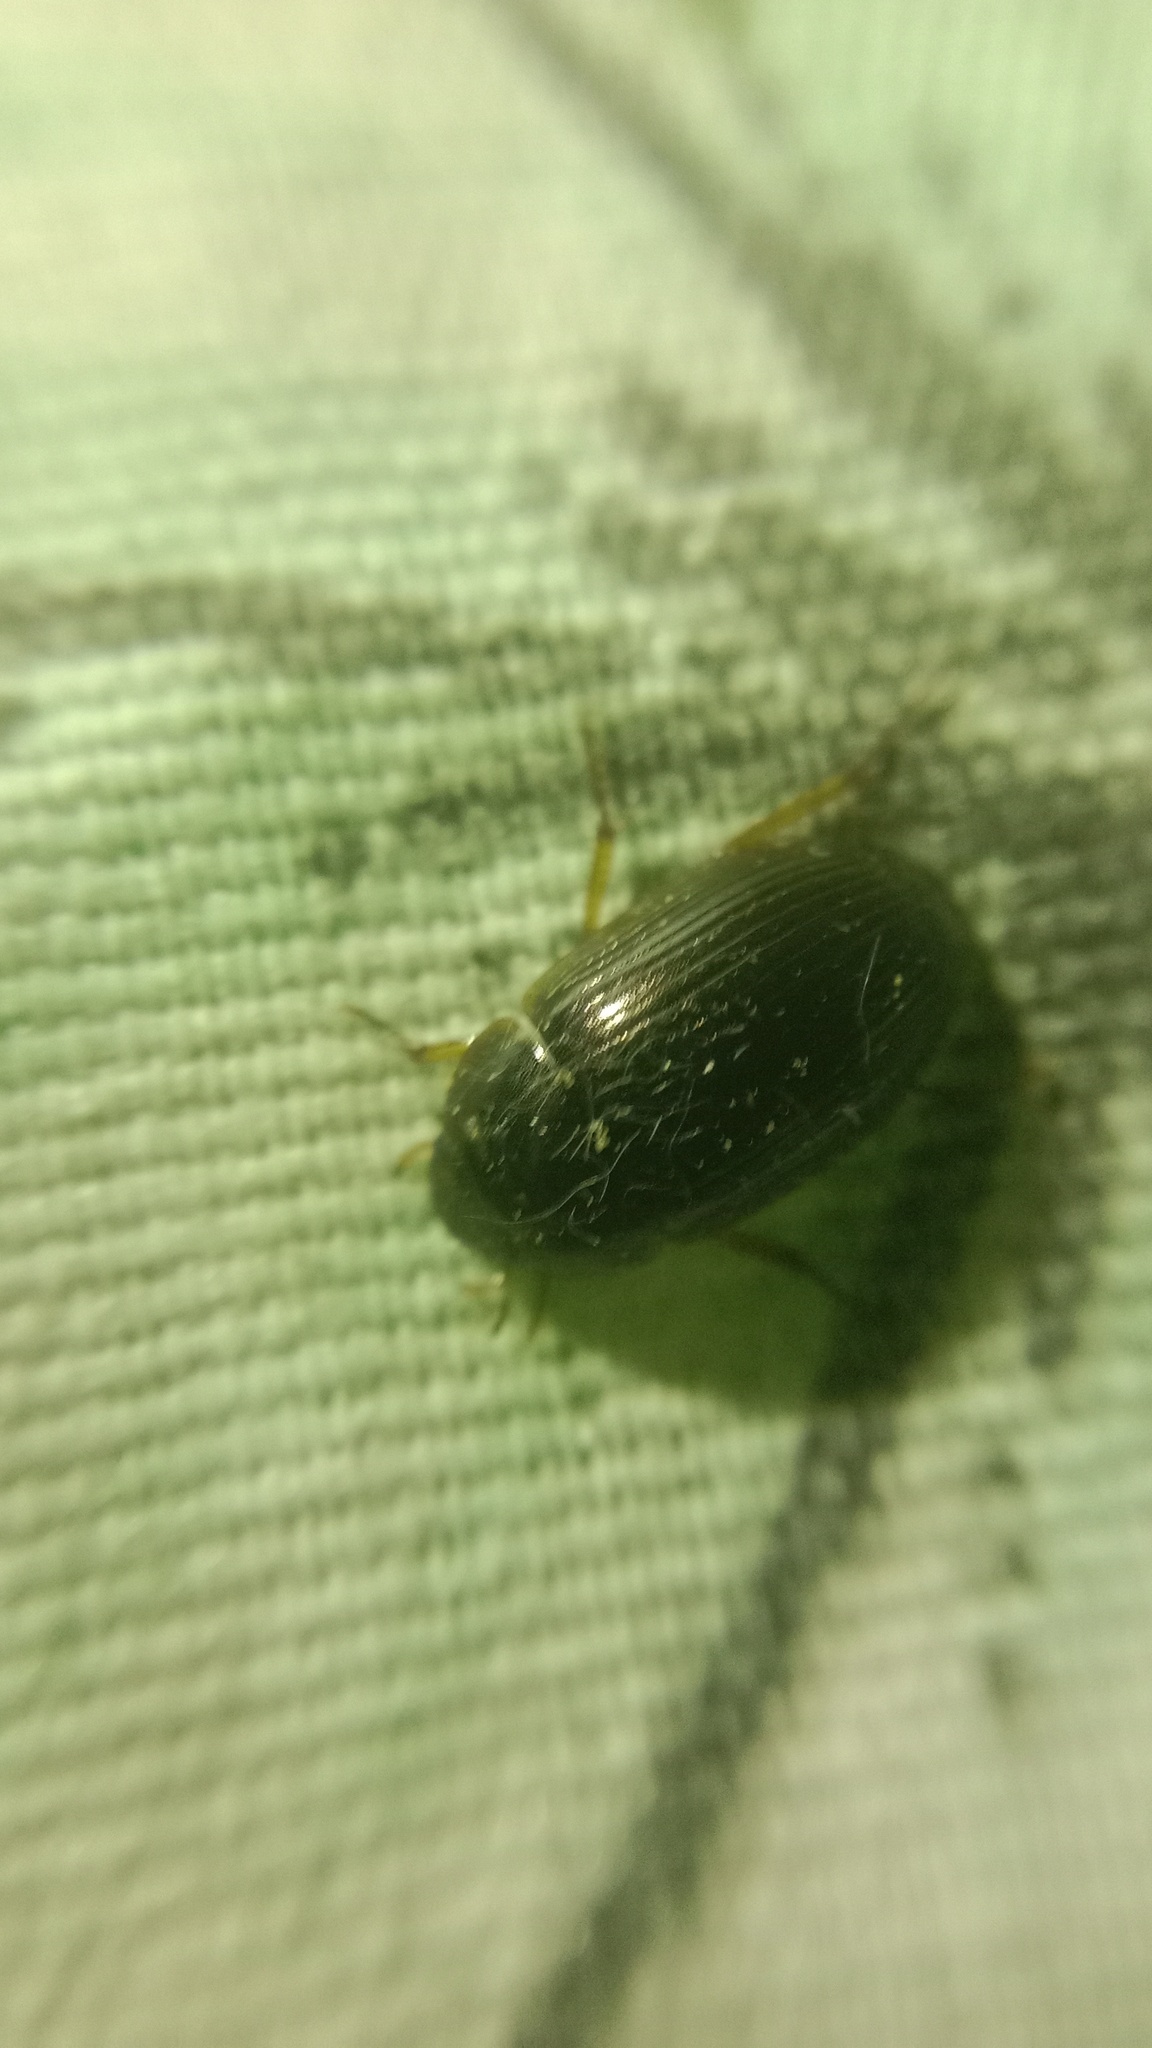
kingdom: Animalia
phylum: Arthropoda
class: Insecta
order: Coleoptera
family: Hydrophilidae
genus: Hydrobius
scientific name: Hydrobius
